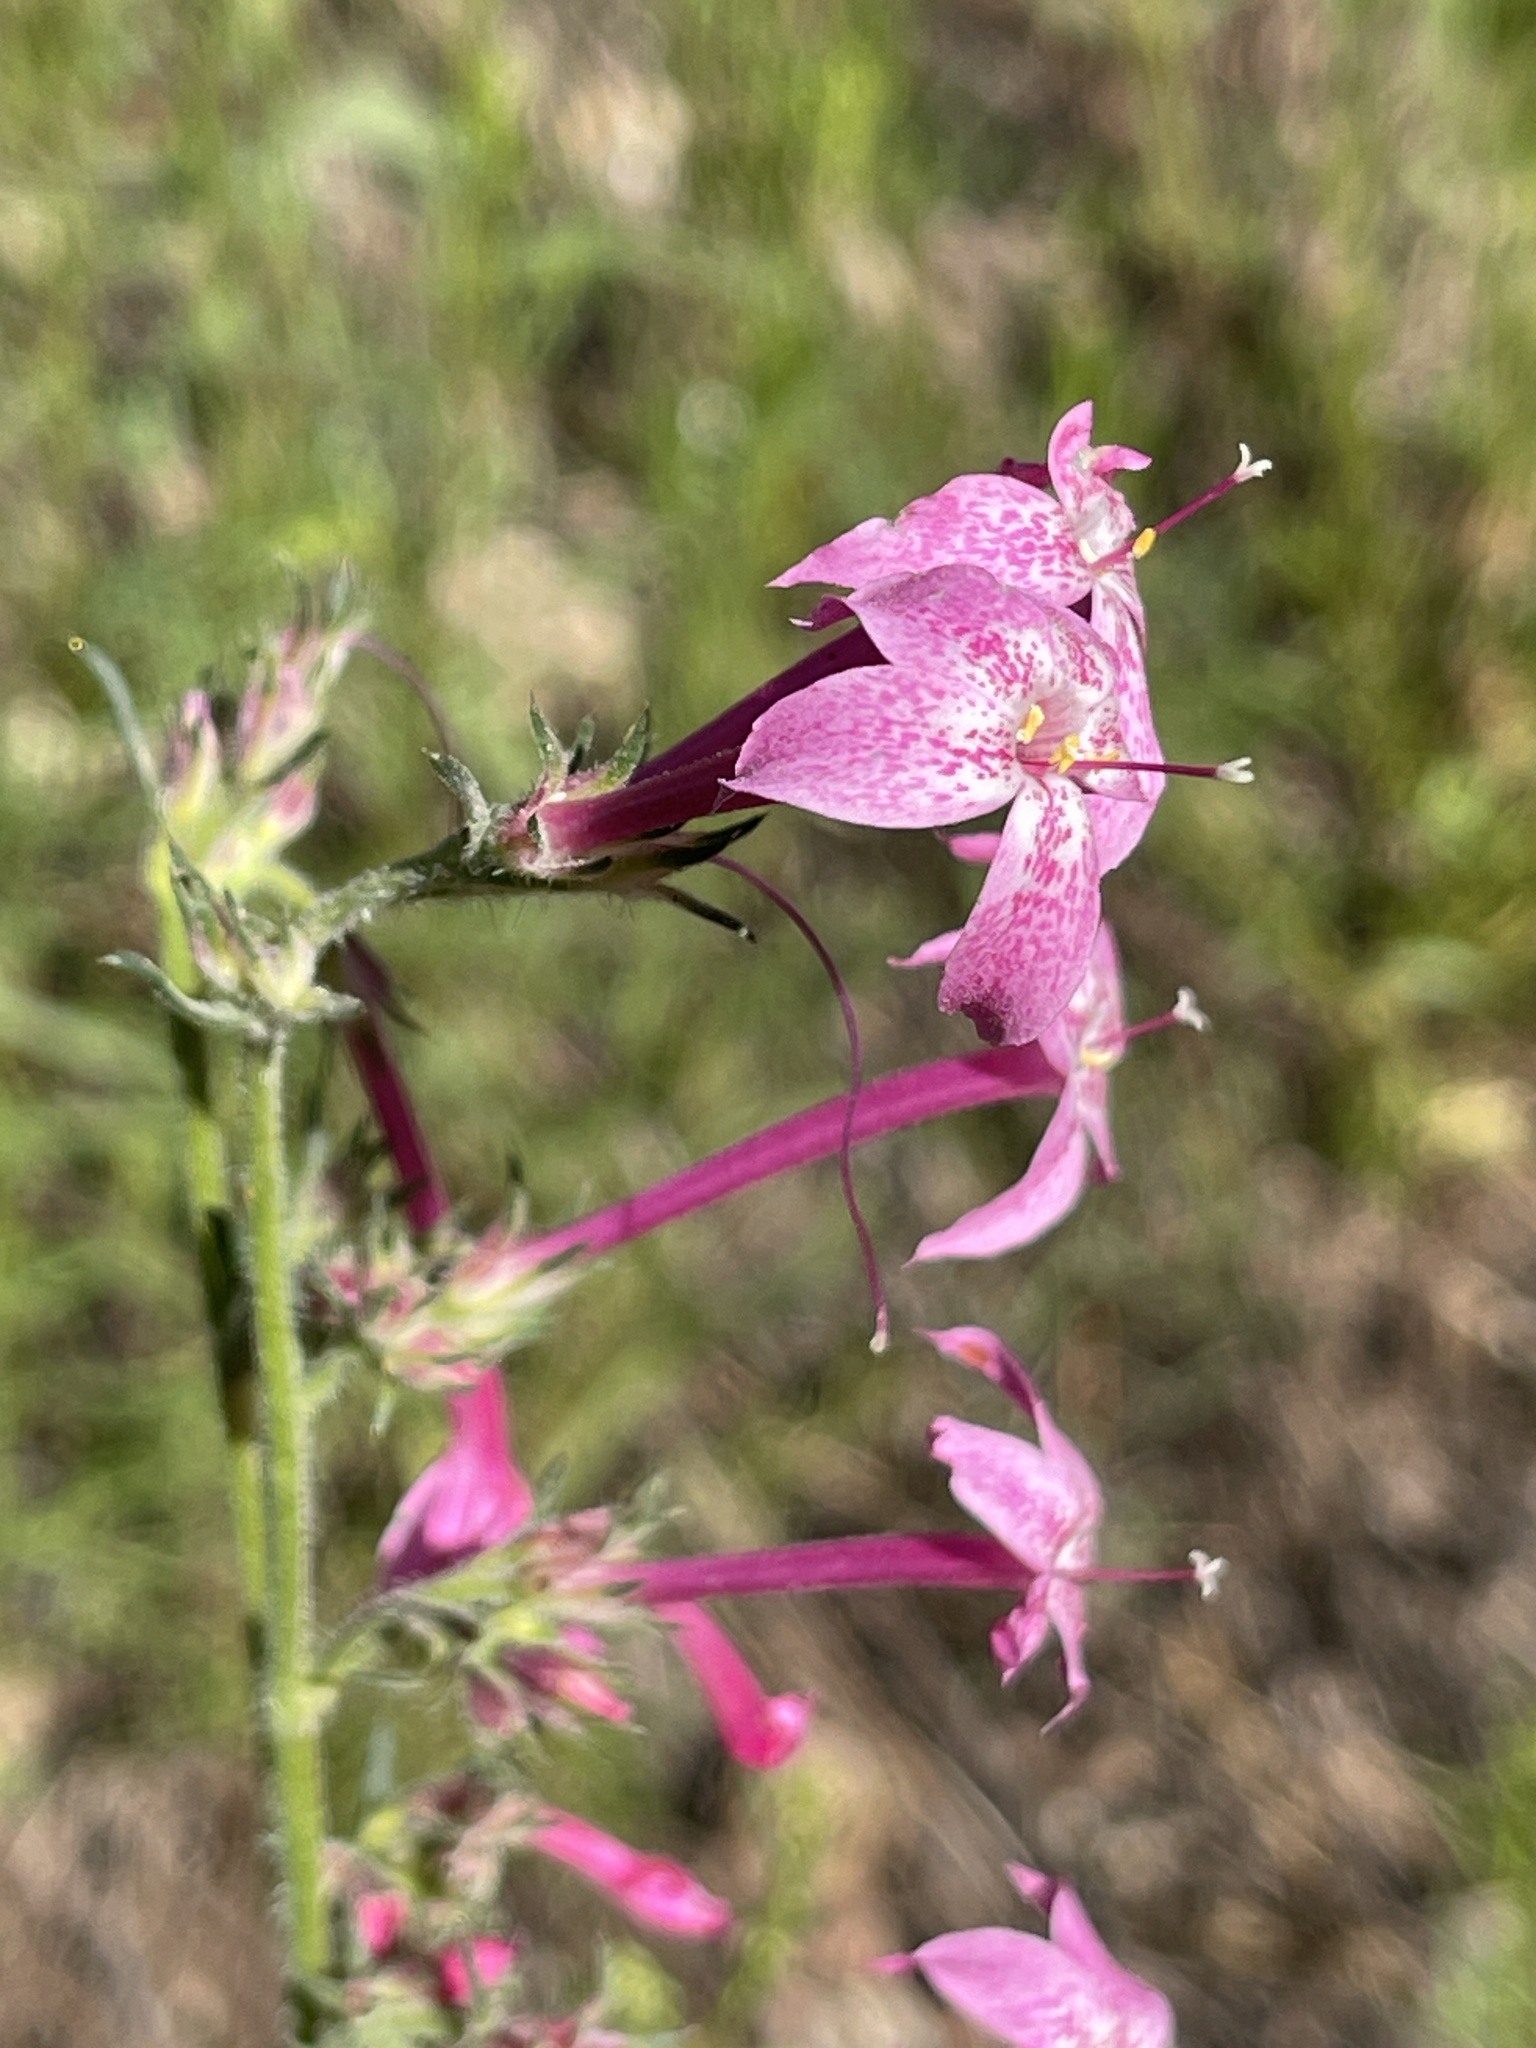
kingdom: Plantae
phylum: Tracheophyta
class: Magnoliopsida
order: Ericales
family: Polemoniaceae
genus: Ipomopsis
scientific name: Ipomopsis tenuituba
